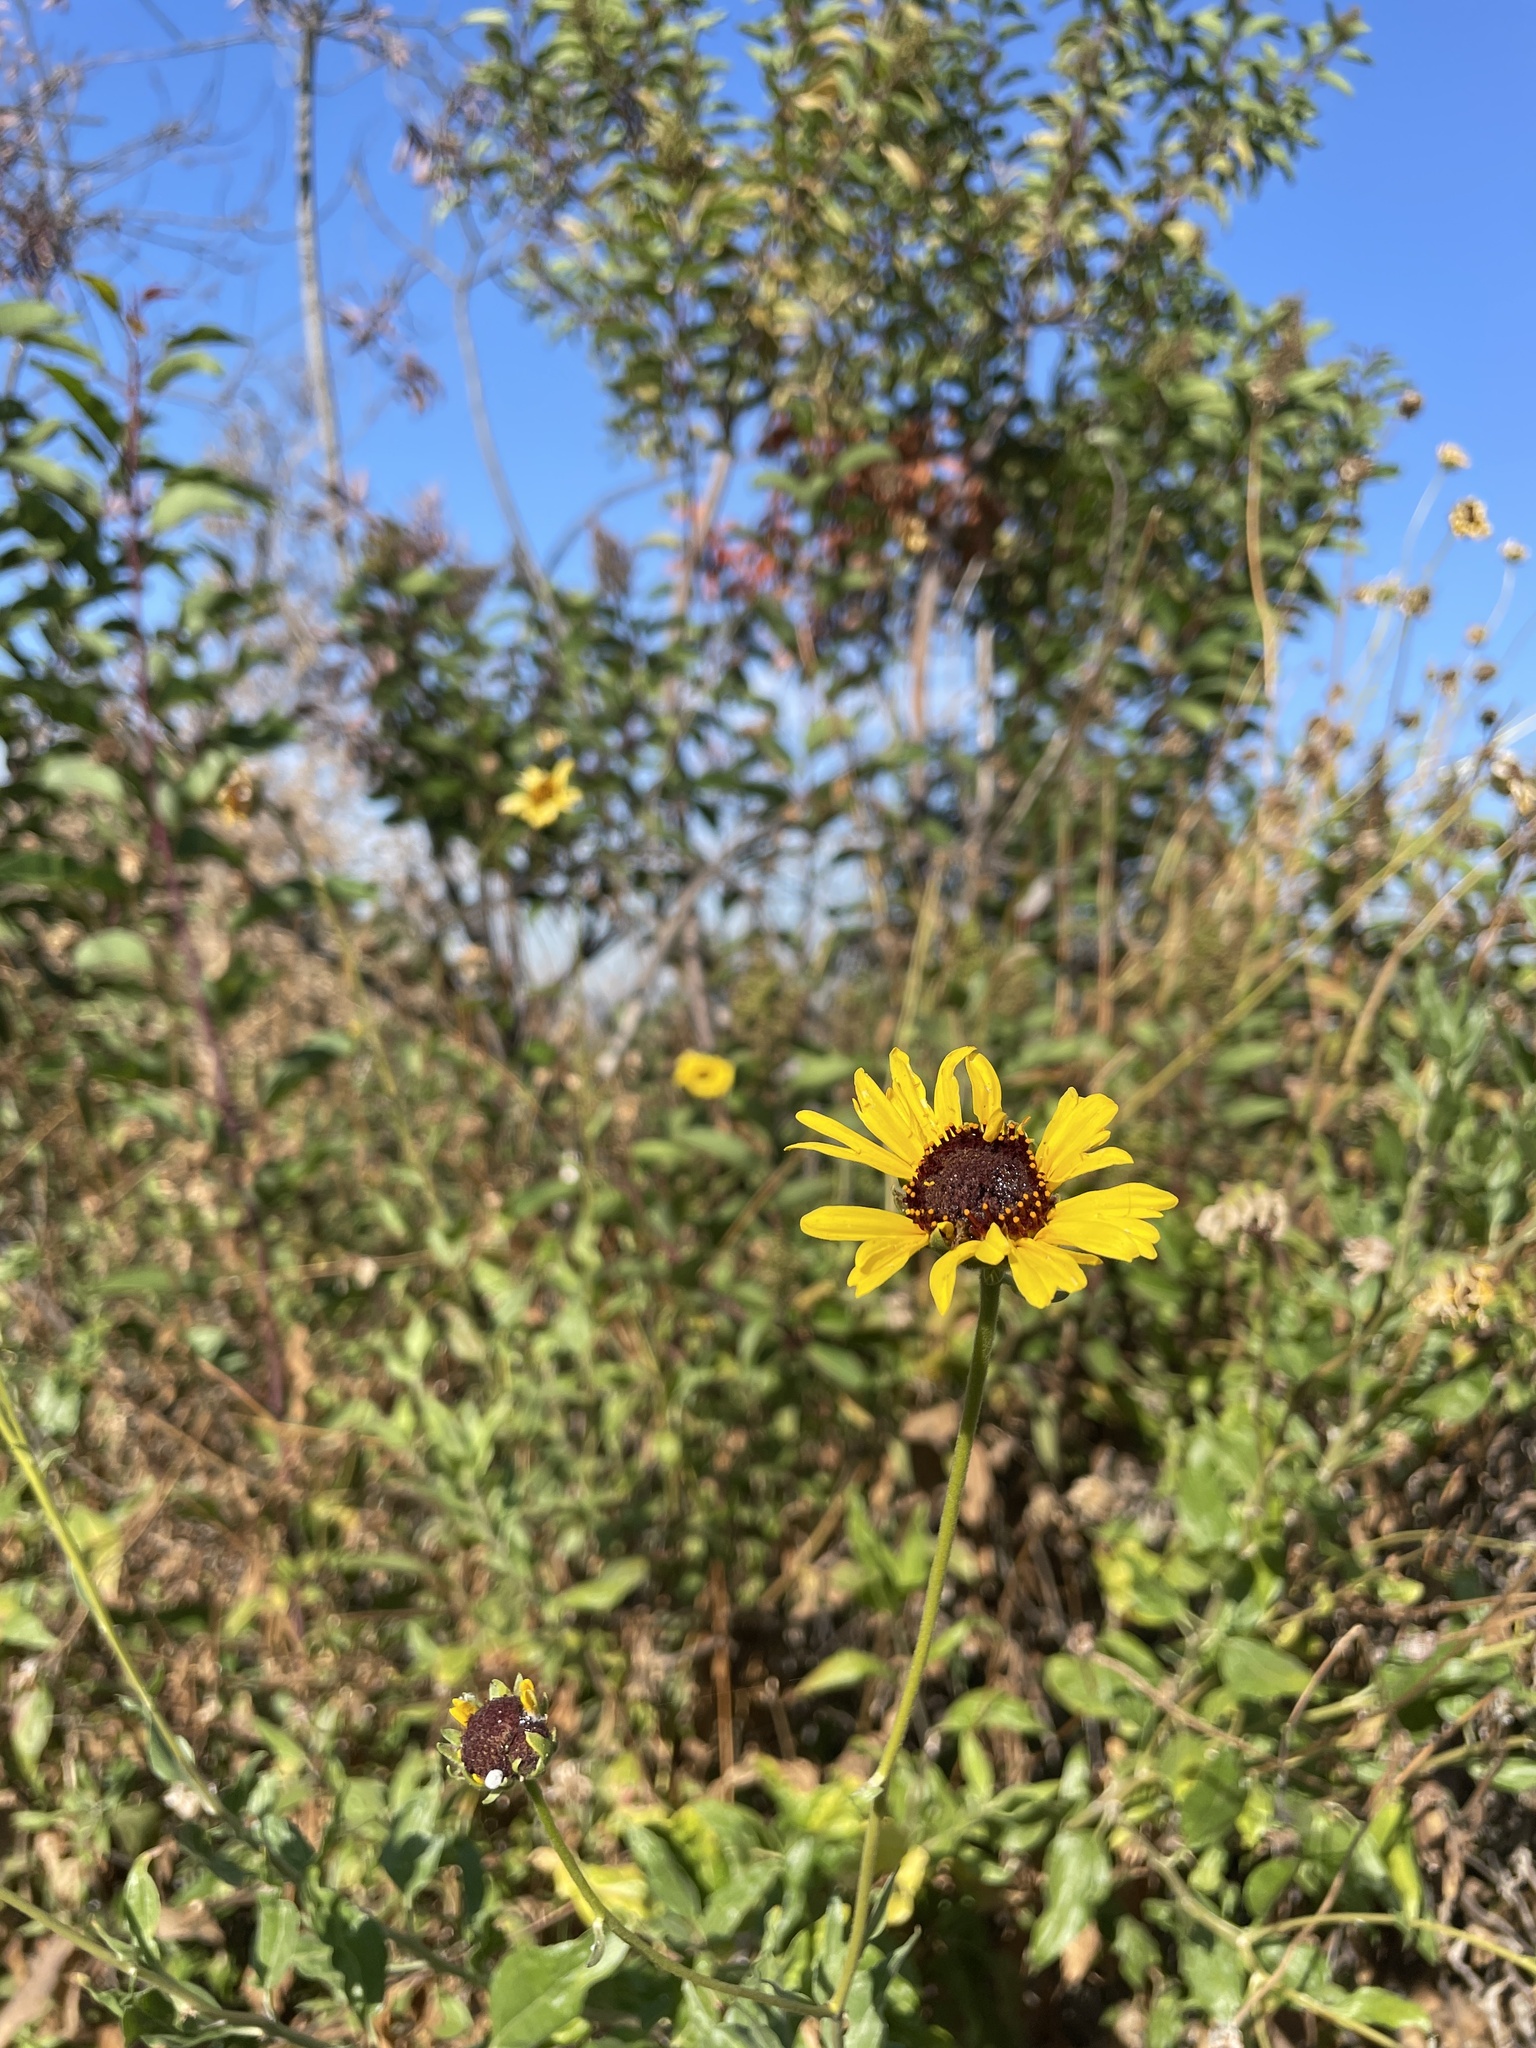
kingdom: Plantae
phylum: Tracheophyta
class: Magnoliopsida
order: Asterales
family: Asteraceae
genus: Encelia
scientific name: Encelia californica
